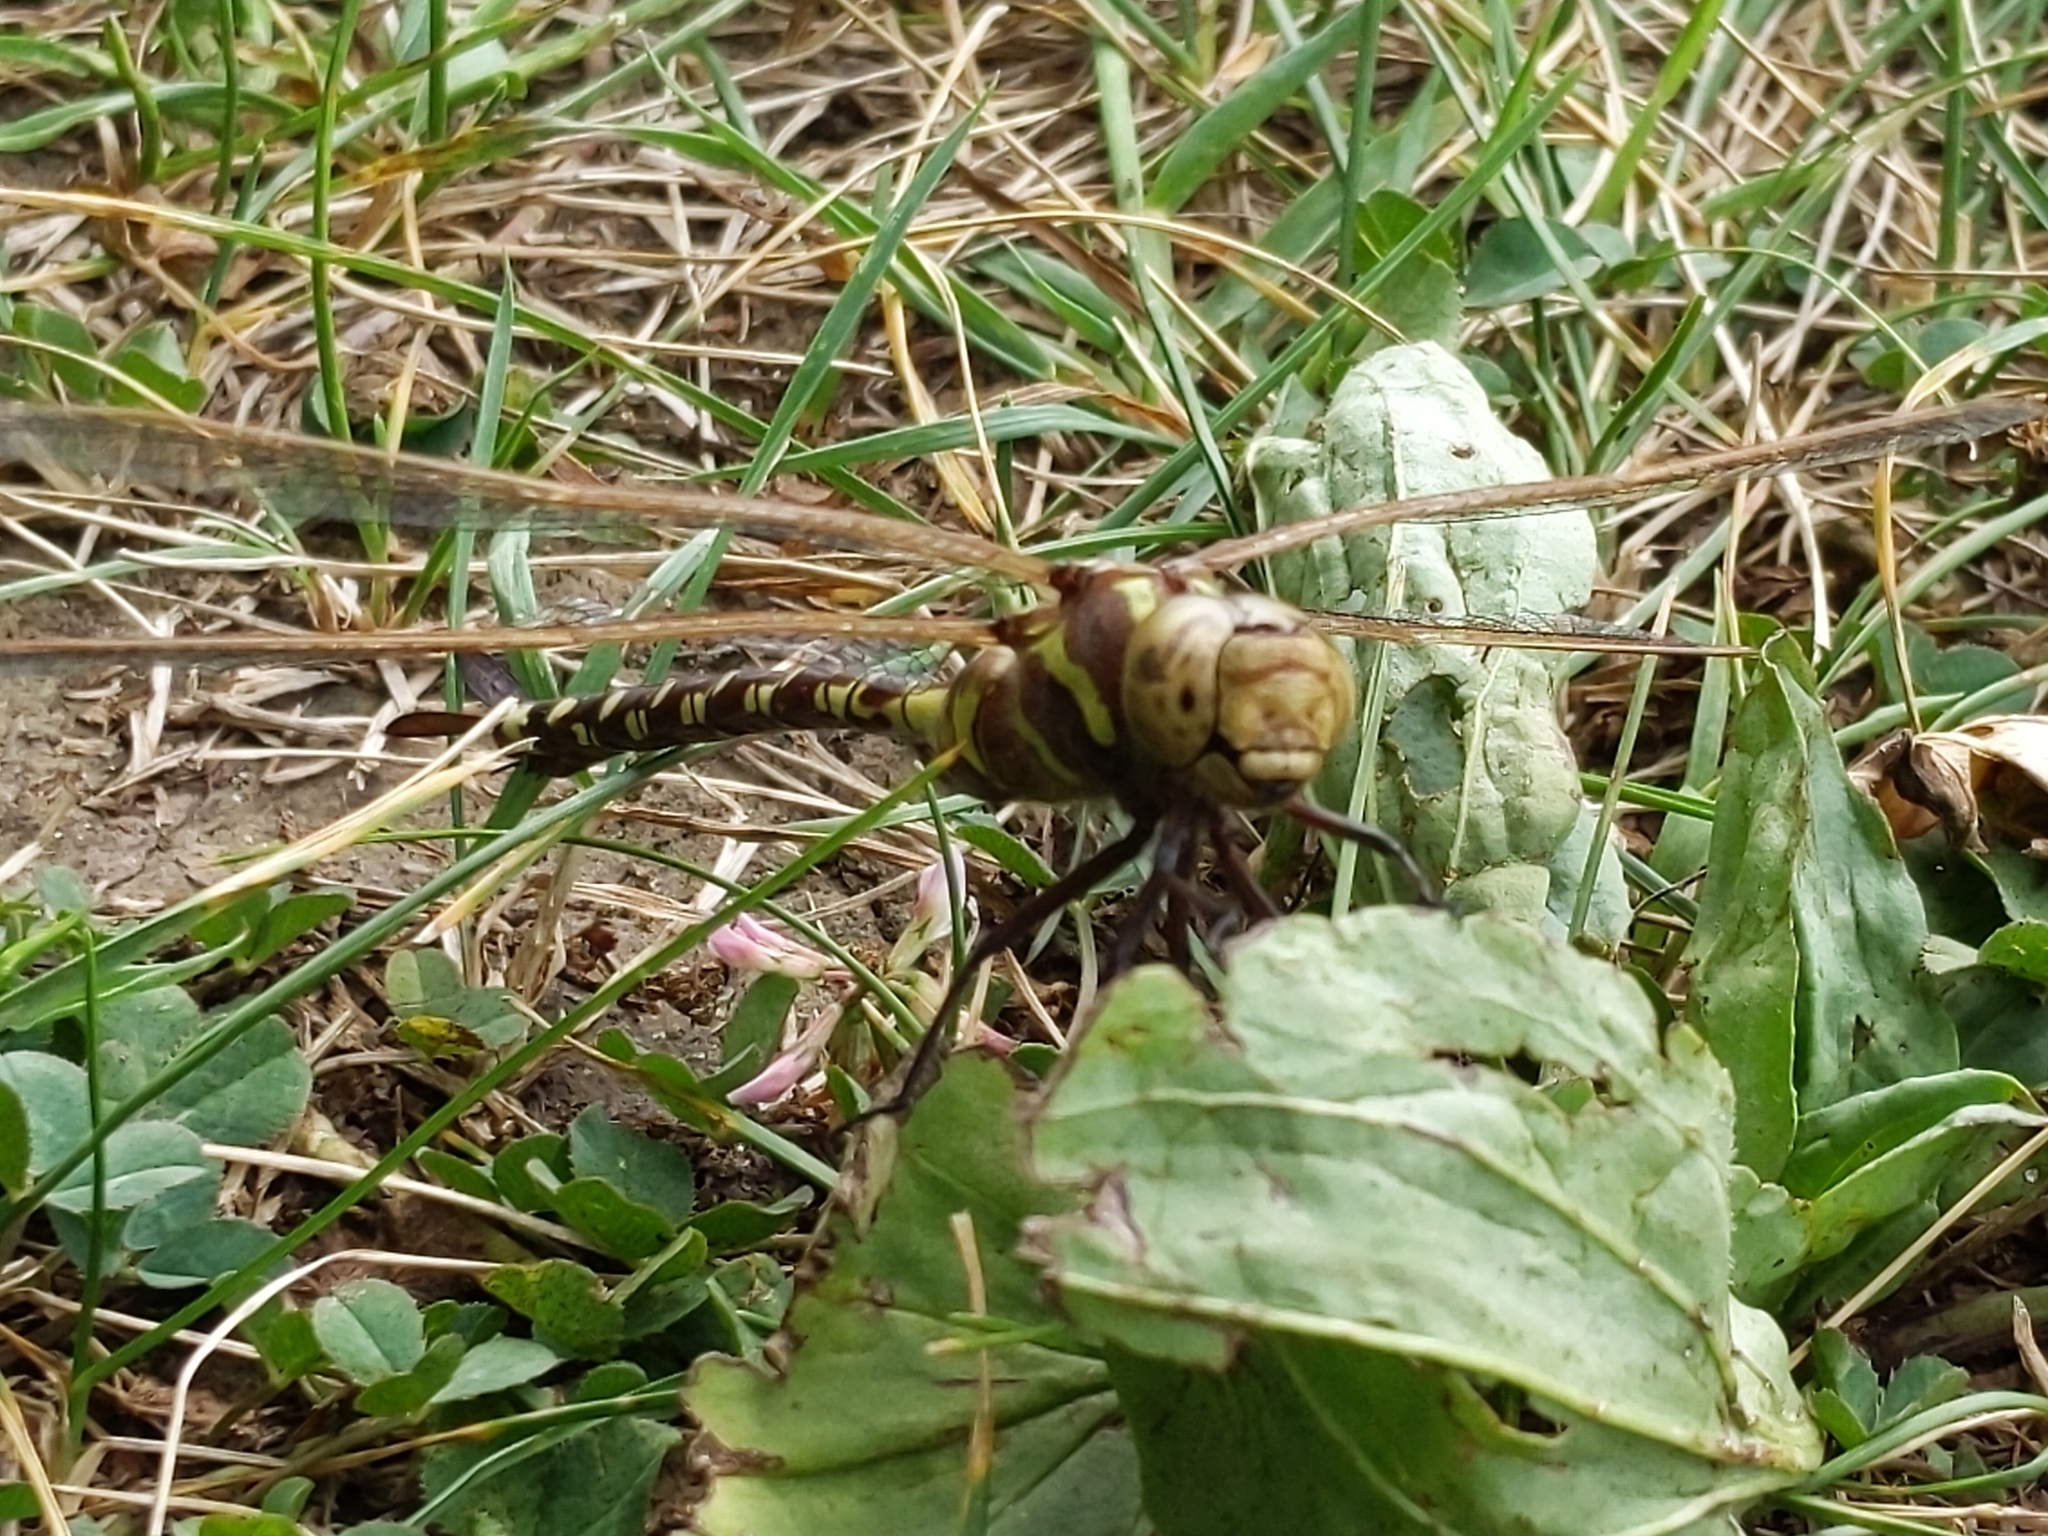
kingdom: Animalia
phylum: Arthropoda
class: Insecta
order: Odonata
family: Aeshnidae
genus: Aeshna
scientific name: Aeshna constricta
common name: Lance-tipped darner
